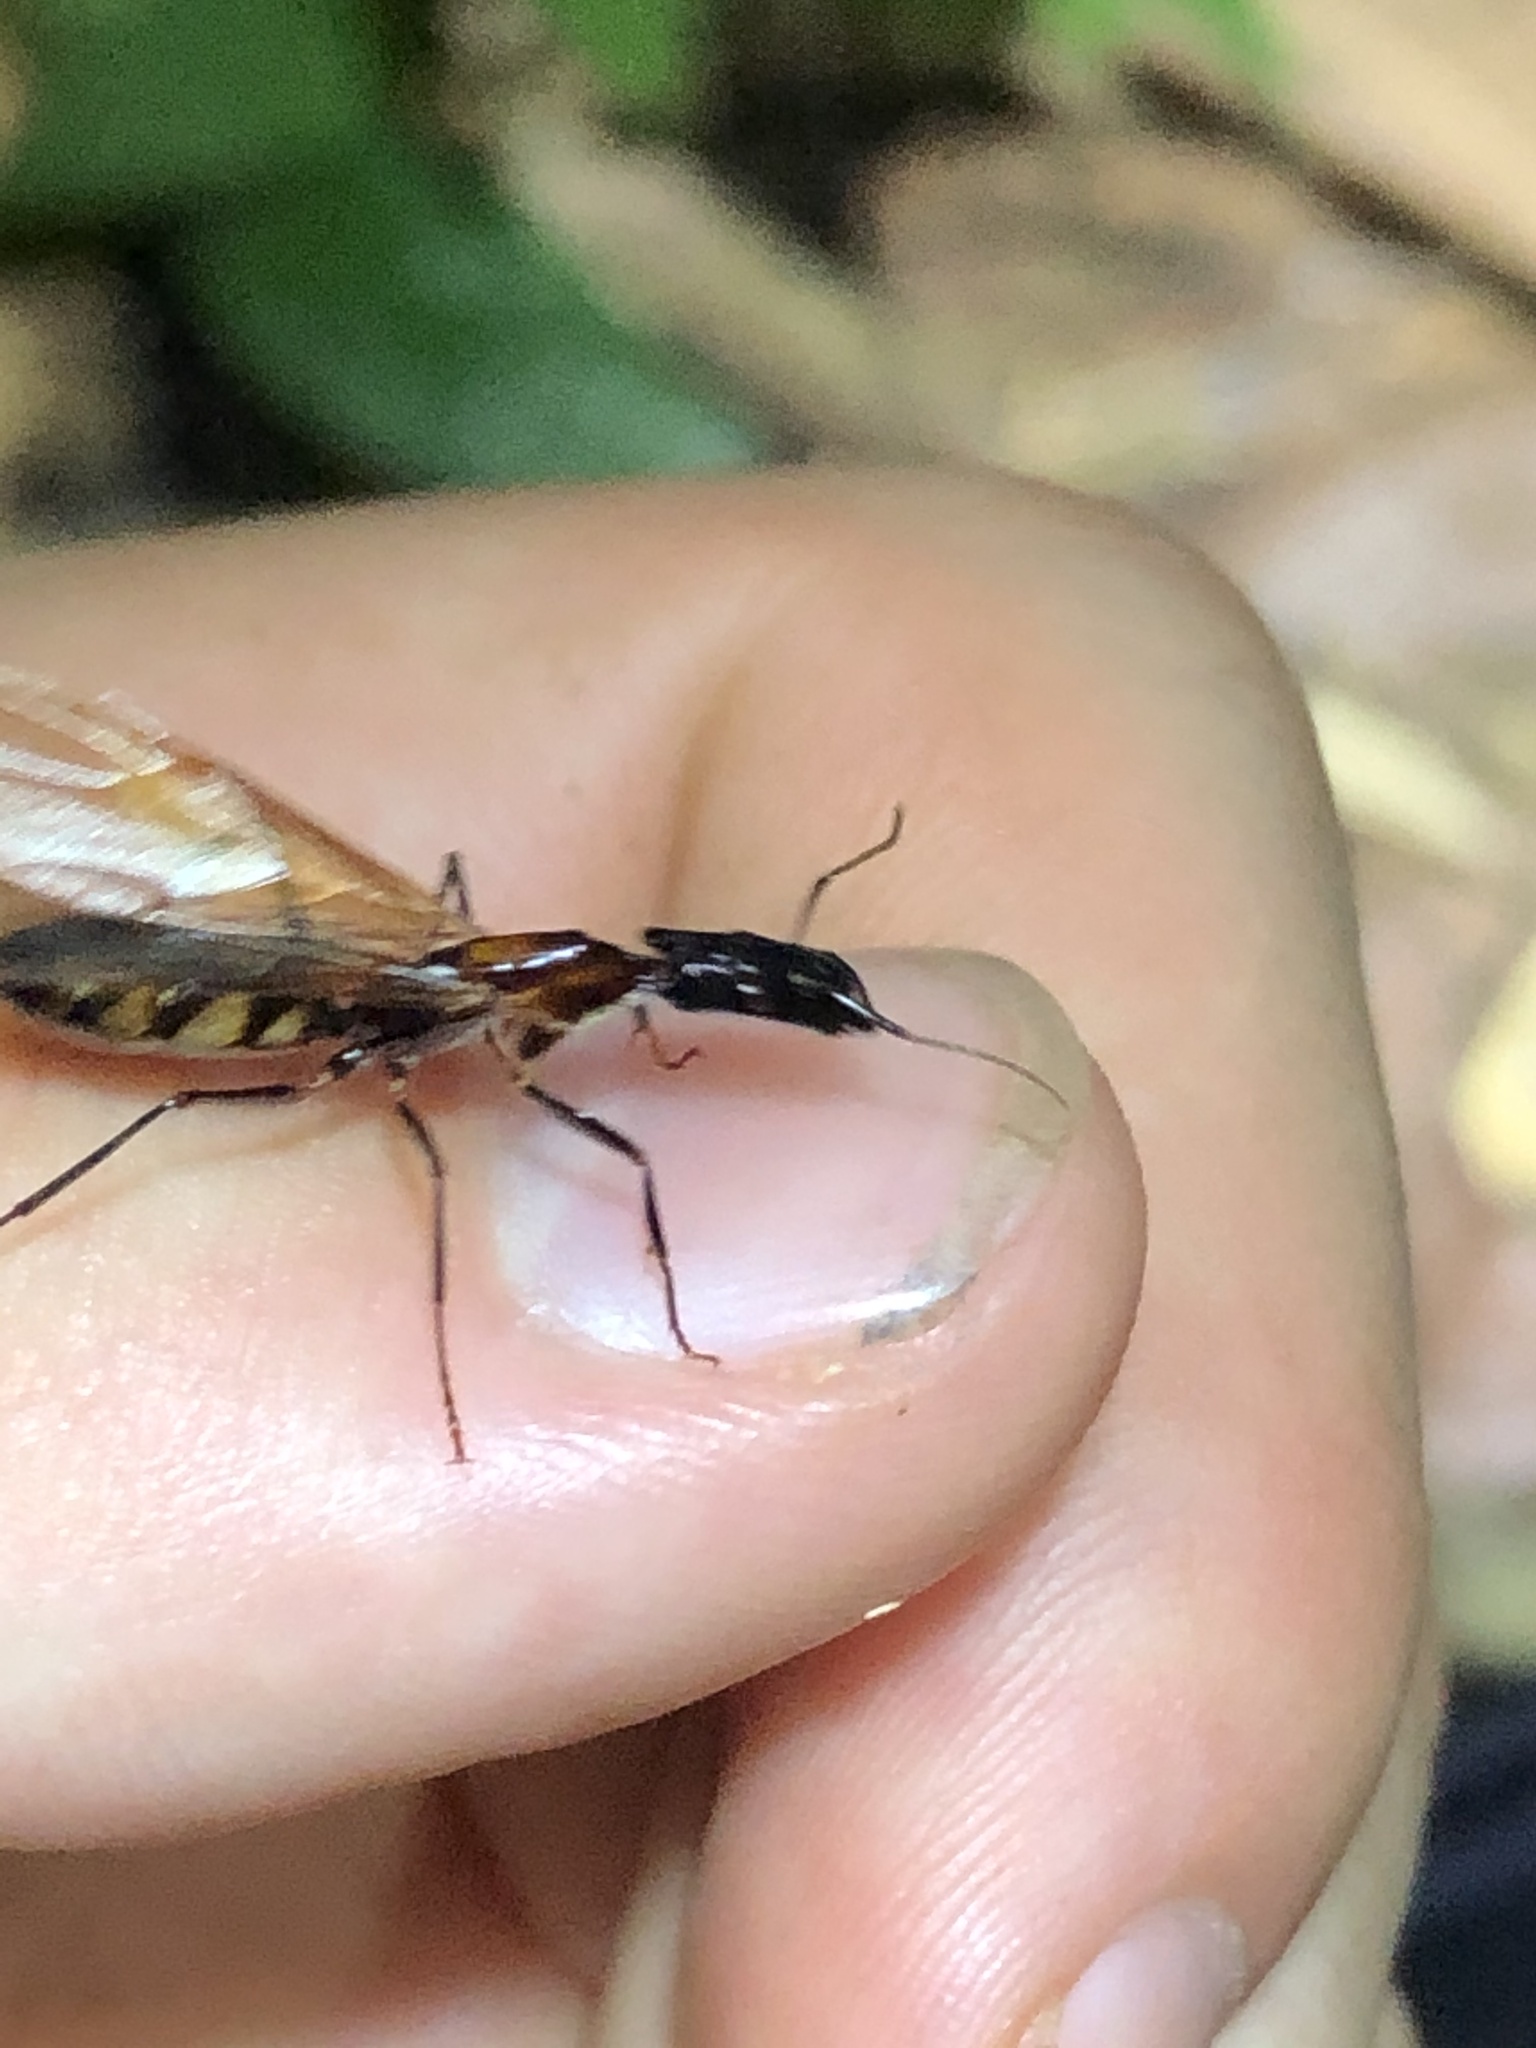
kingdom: Animalia
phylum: Arthropoda
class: Insecta
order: Hymenoptera
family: Formicidae
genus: Camponotus
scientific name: Camponotus mirabilis
